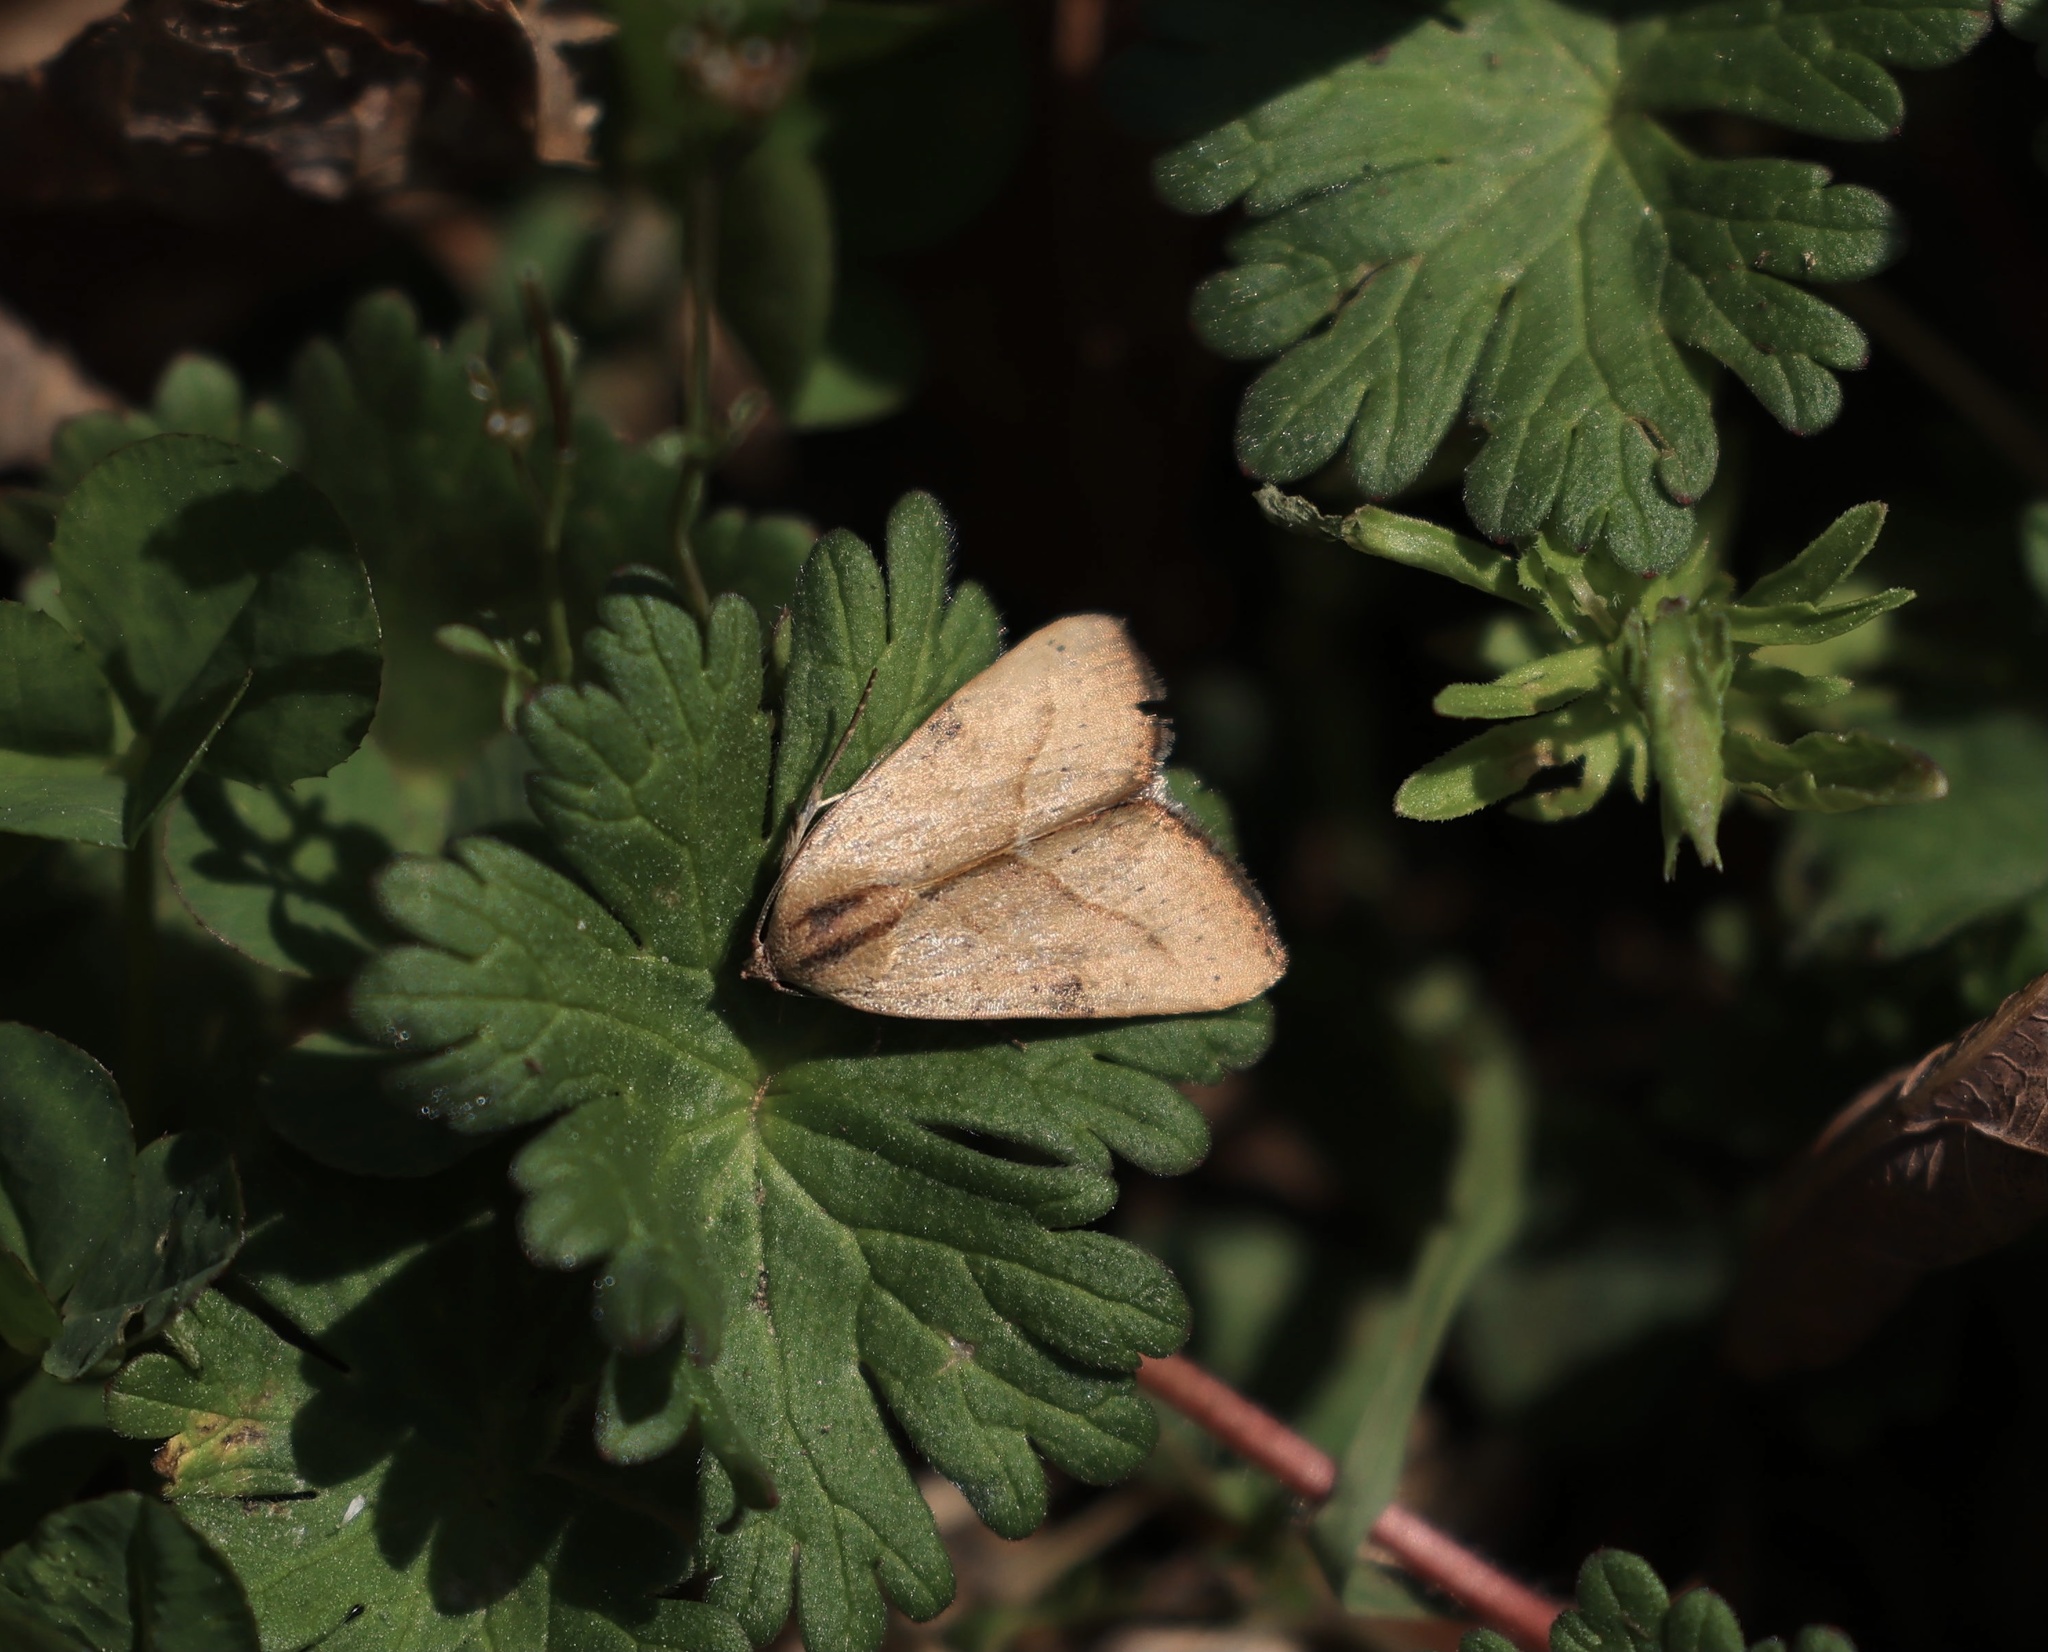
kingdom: Animalia
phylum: Arthropoda
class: Insecta
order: Lepidoptera
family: Noctuidae
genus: Galgula
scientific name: Galgula partita
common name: Wedgeling
